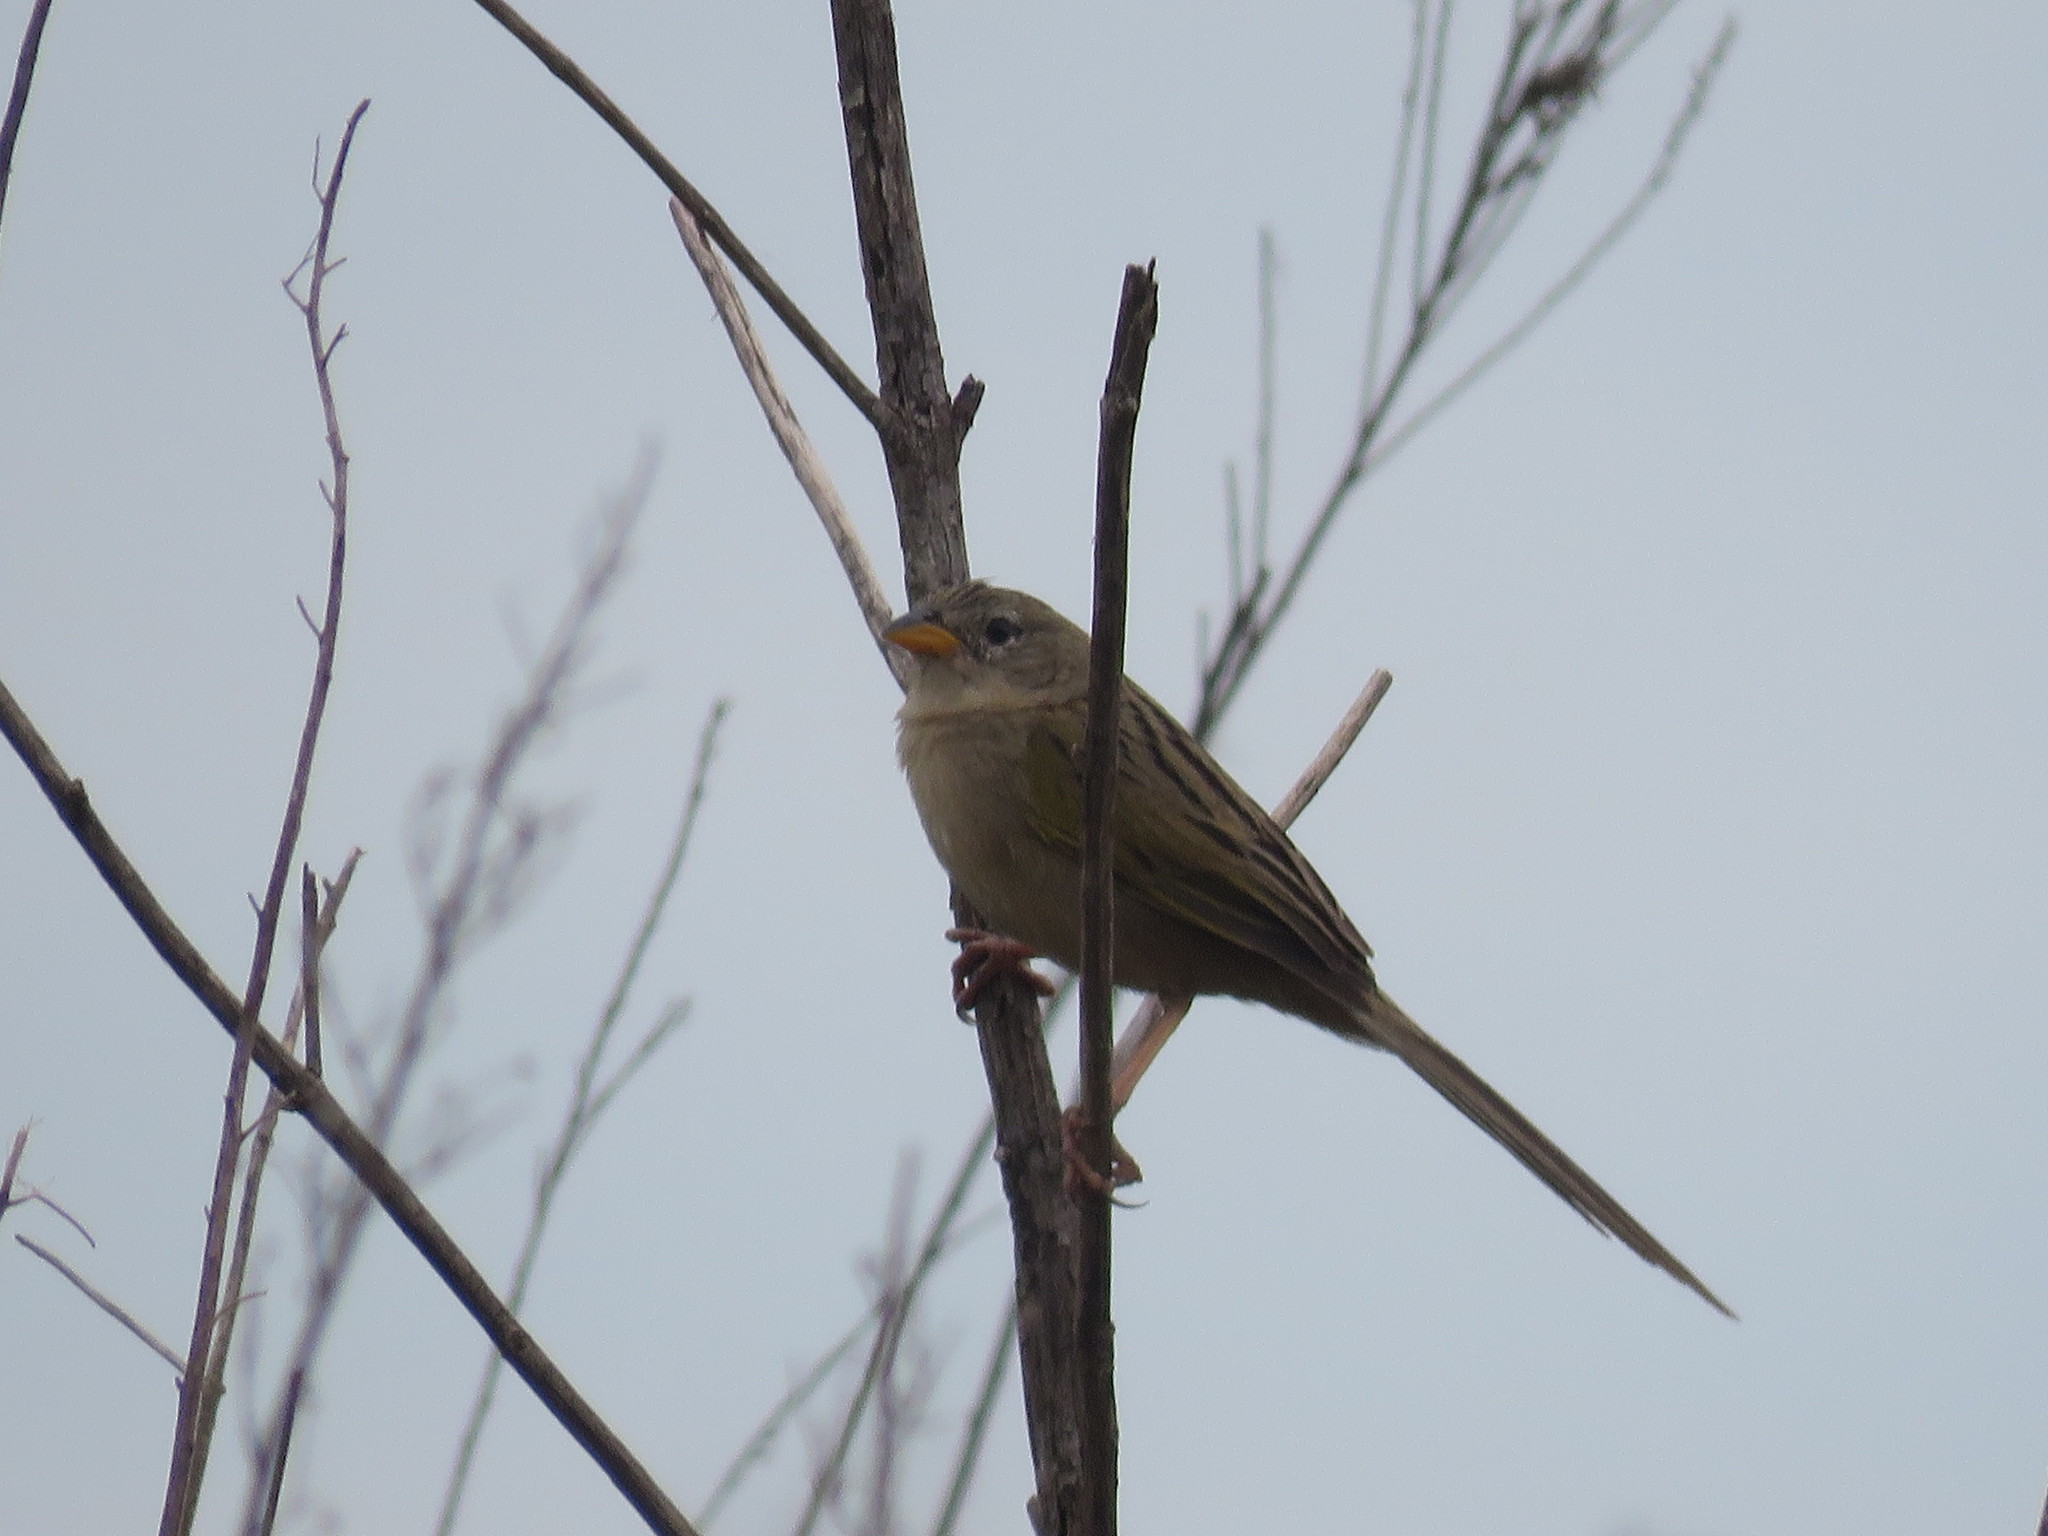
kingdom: Animalia
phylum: Chordata
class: Aves
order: Passeriformes
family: Thraupidae
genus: Emberizoides
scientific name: Emberizoides ypiranganus
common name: Lesser grass finch
